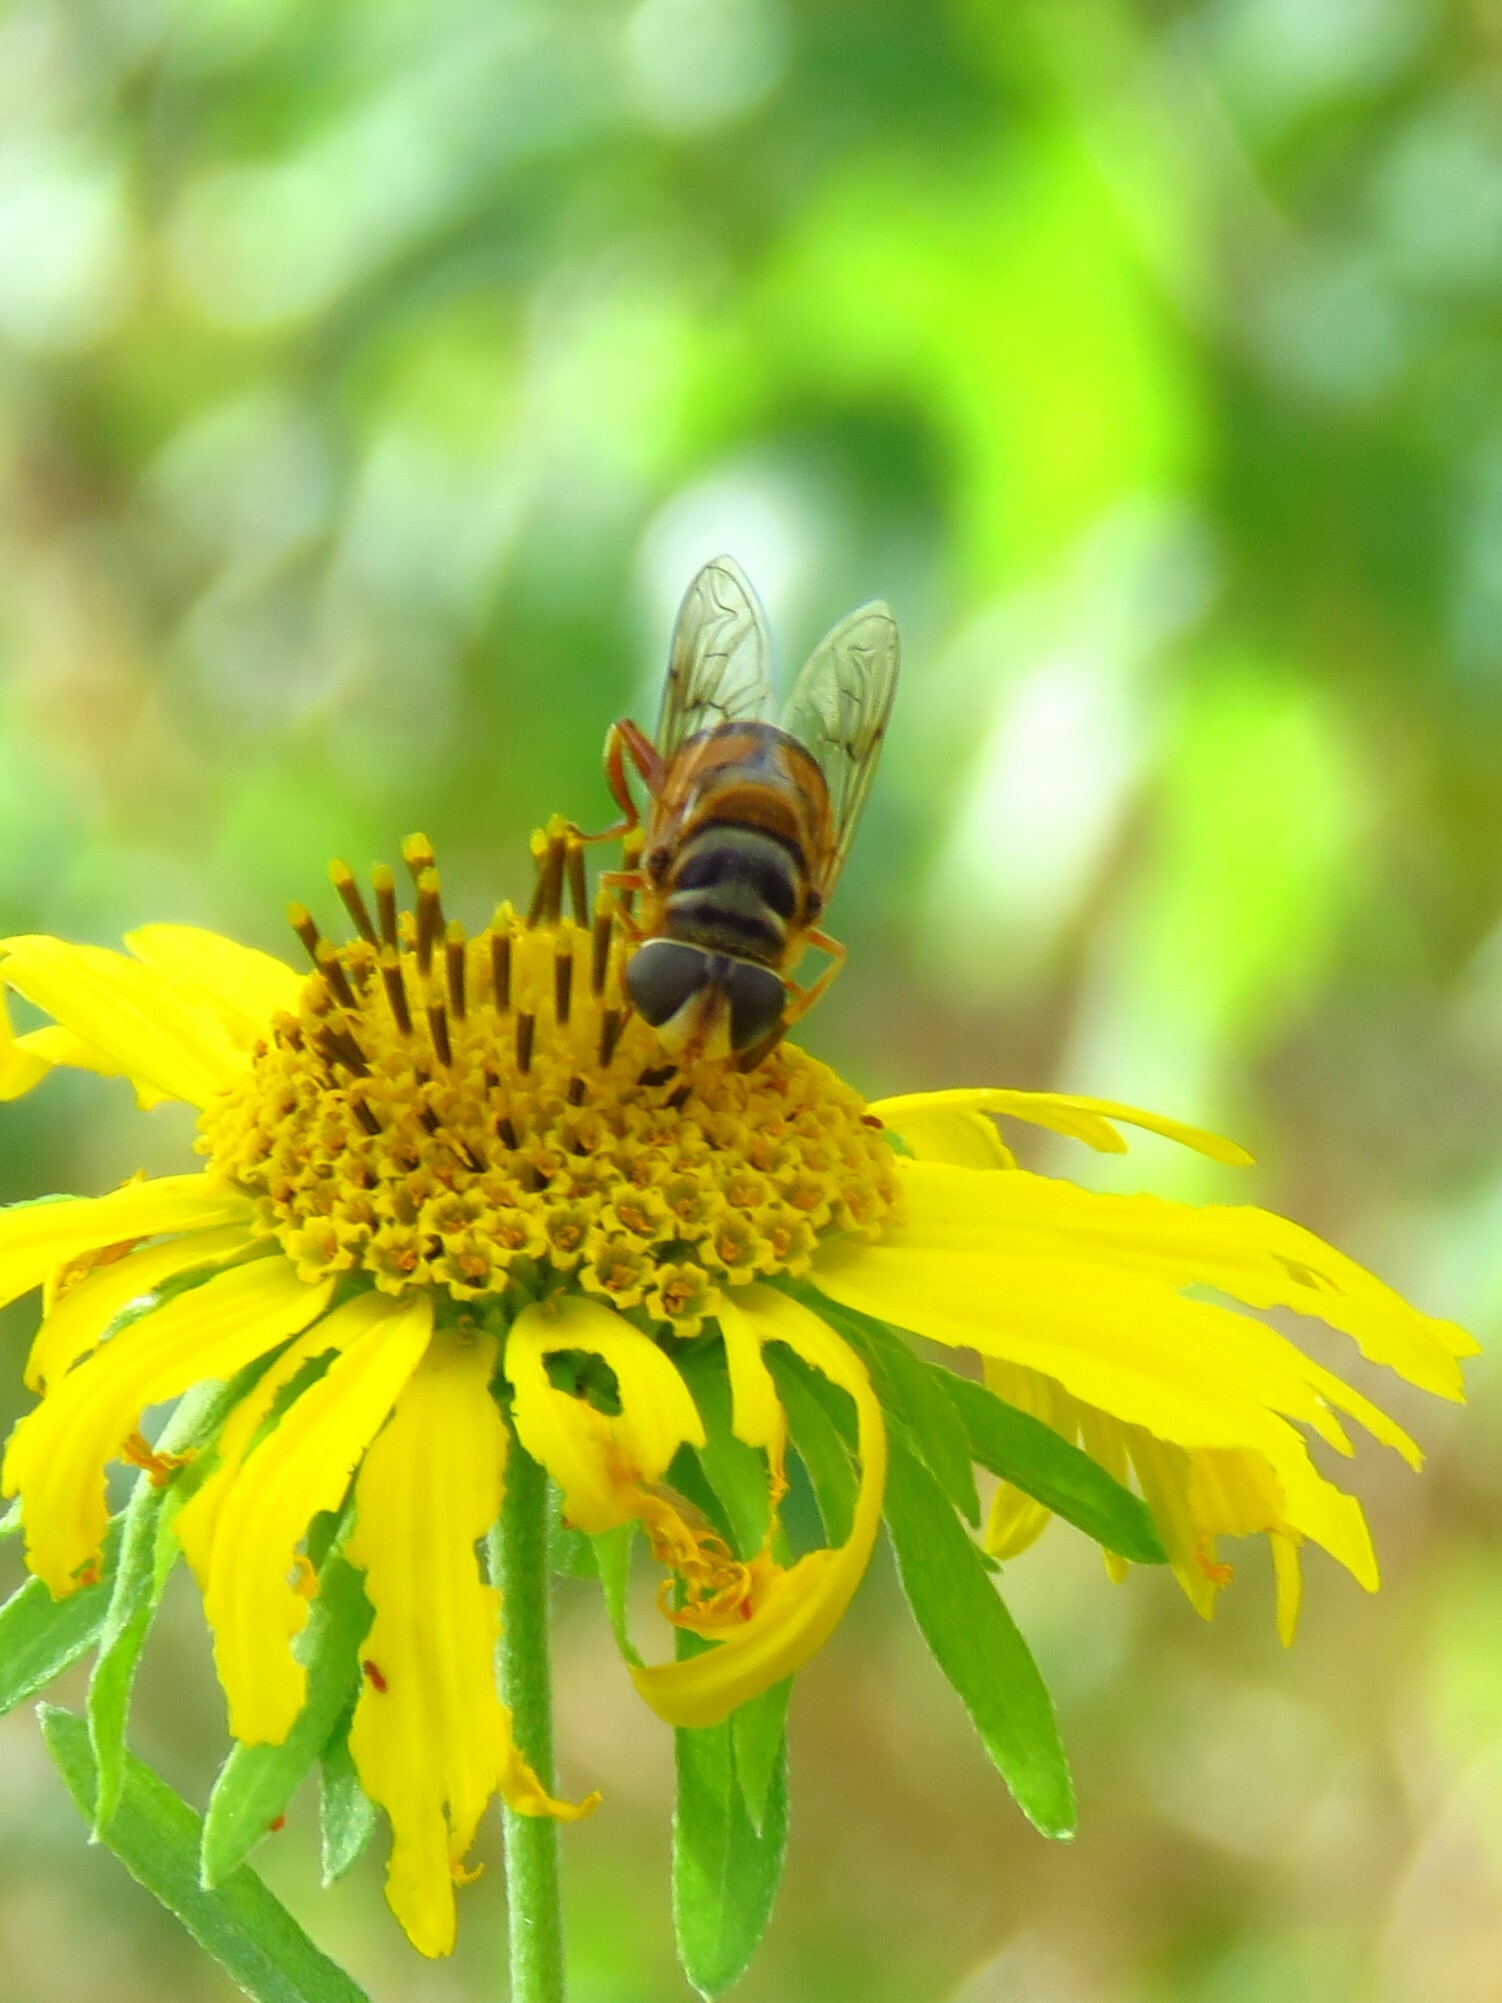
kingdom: Animalia
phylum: Arthropoda
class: Insecta
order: Diptera
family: Syrphidae
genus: Palpada
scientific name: Palpada vinetorum
